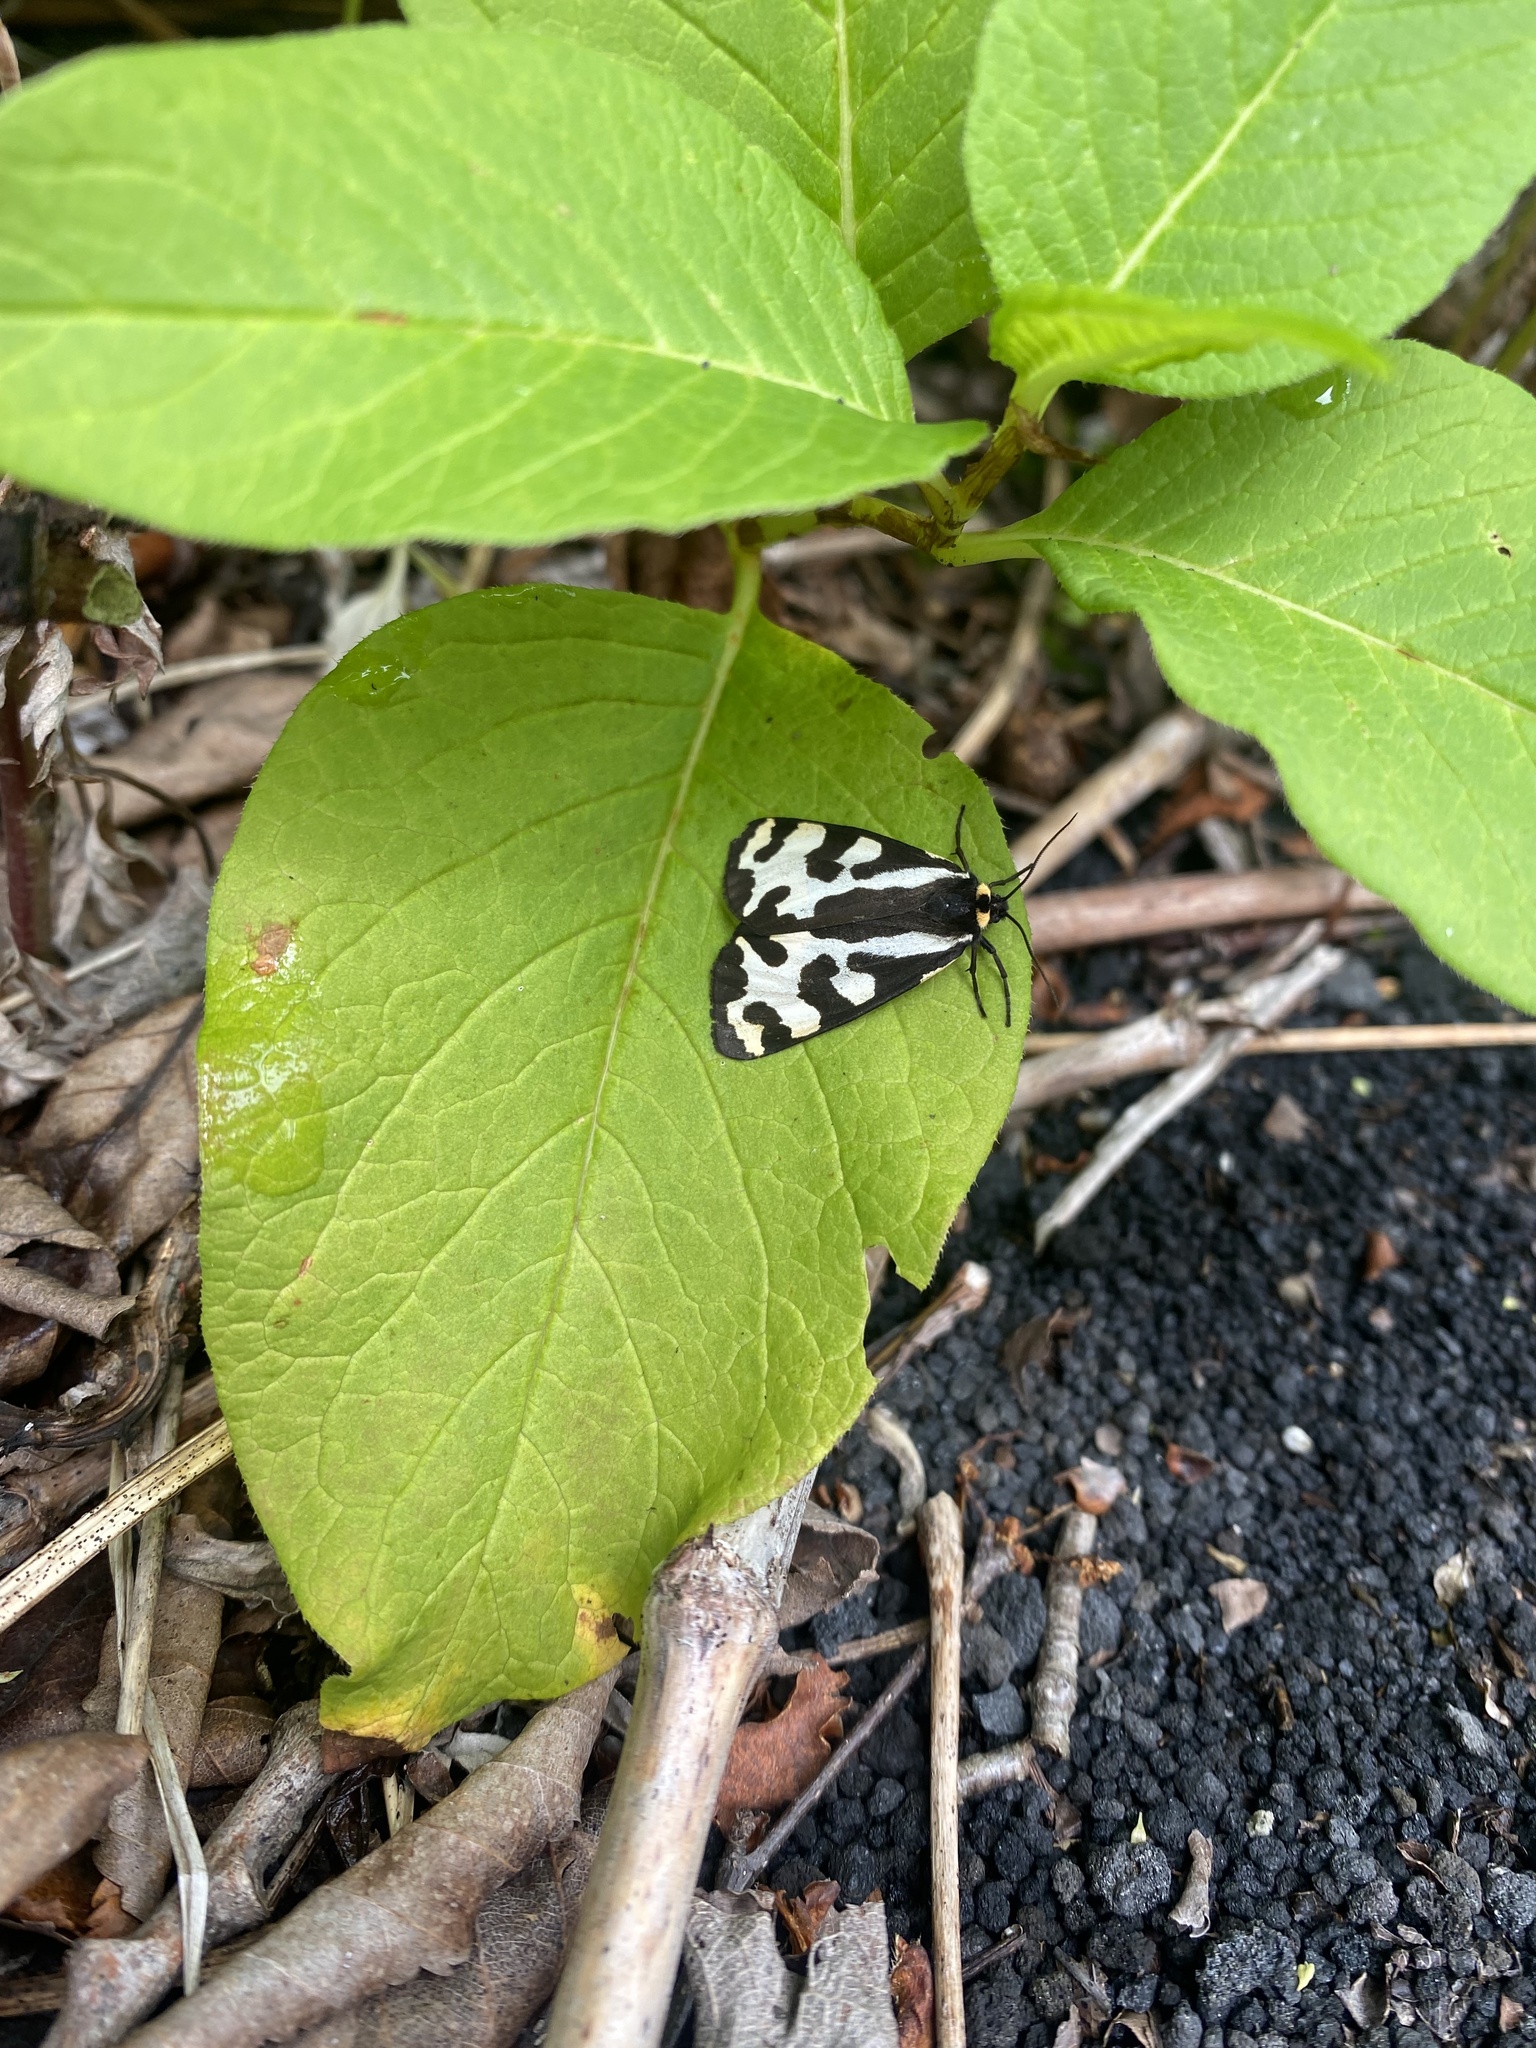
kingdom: Animalia
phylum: Arthropoda
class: Insecta
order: Lepidoptera
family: Erebidae
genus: Parasemia
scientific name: Parasemia plantaginis
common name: Wood tiger
